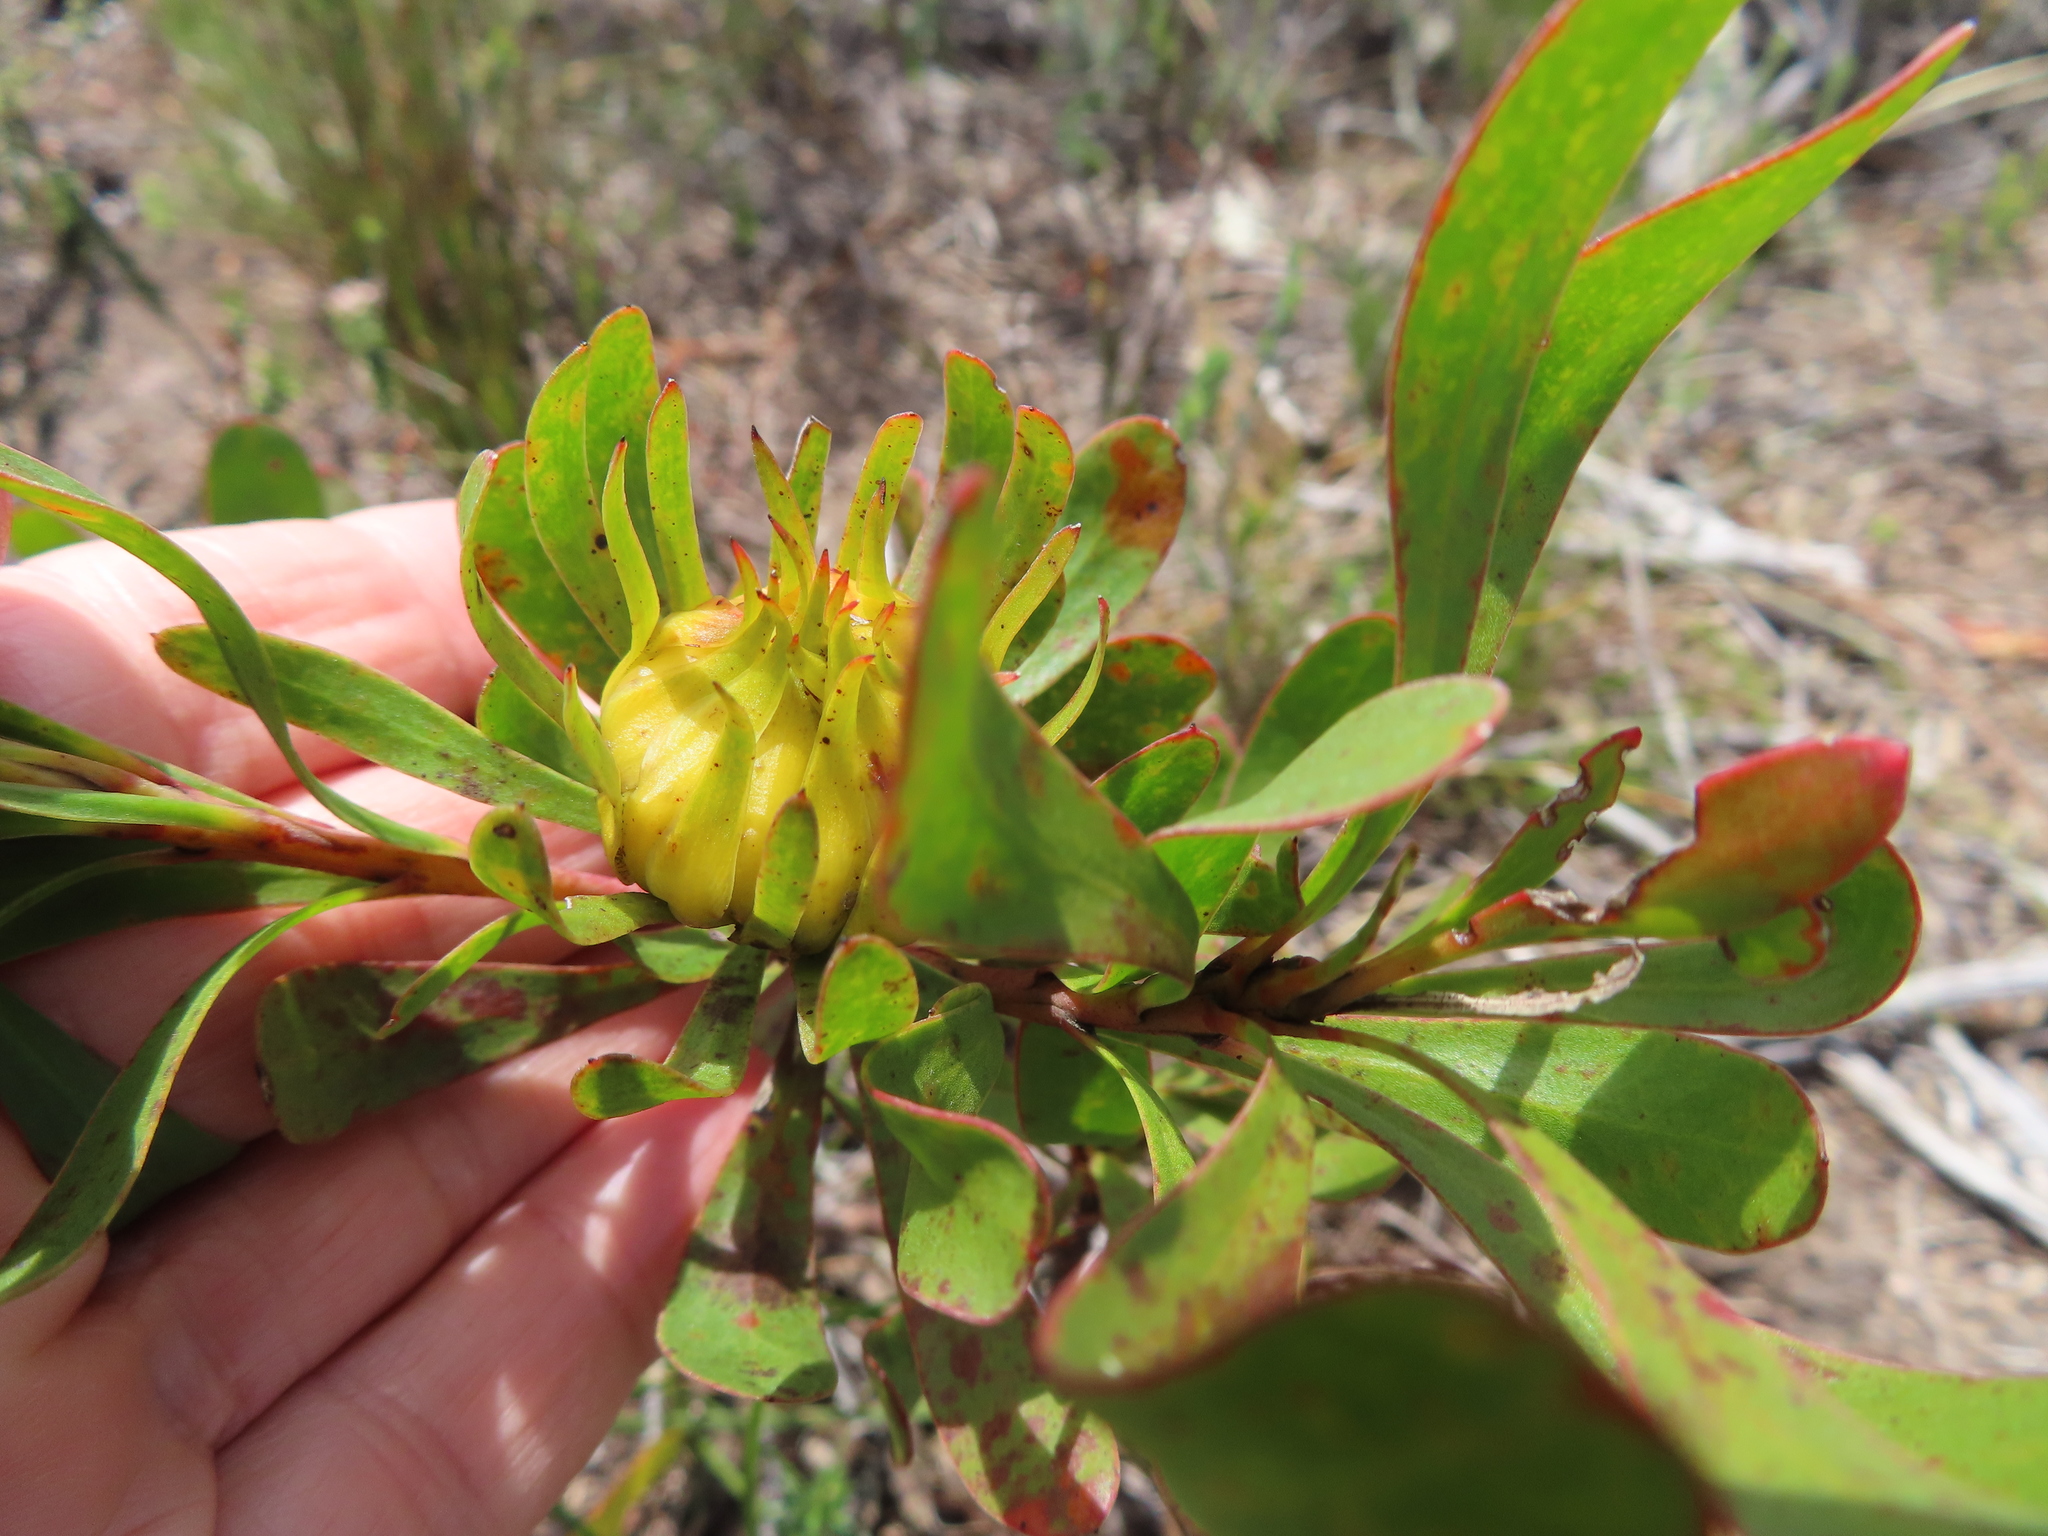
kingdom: Plantae
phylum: Tracheophyta
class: Magnoliopsida
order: Proteales
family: Proteaceae
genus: Aulax
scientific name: Aulax umbellata
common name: Broad-leaf featherbush
